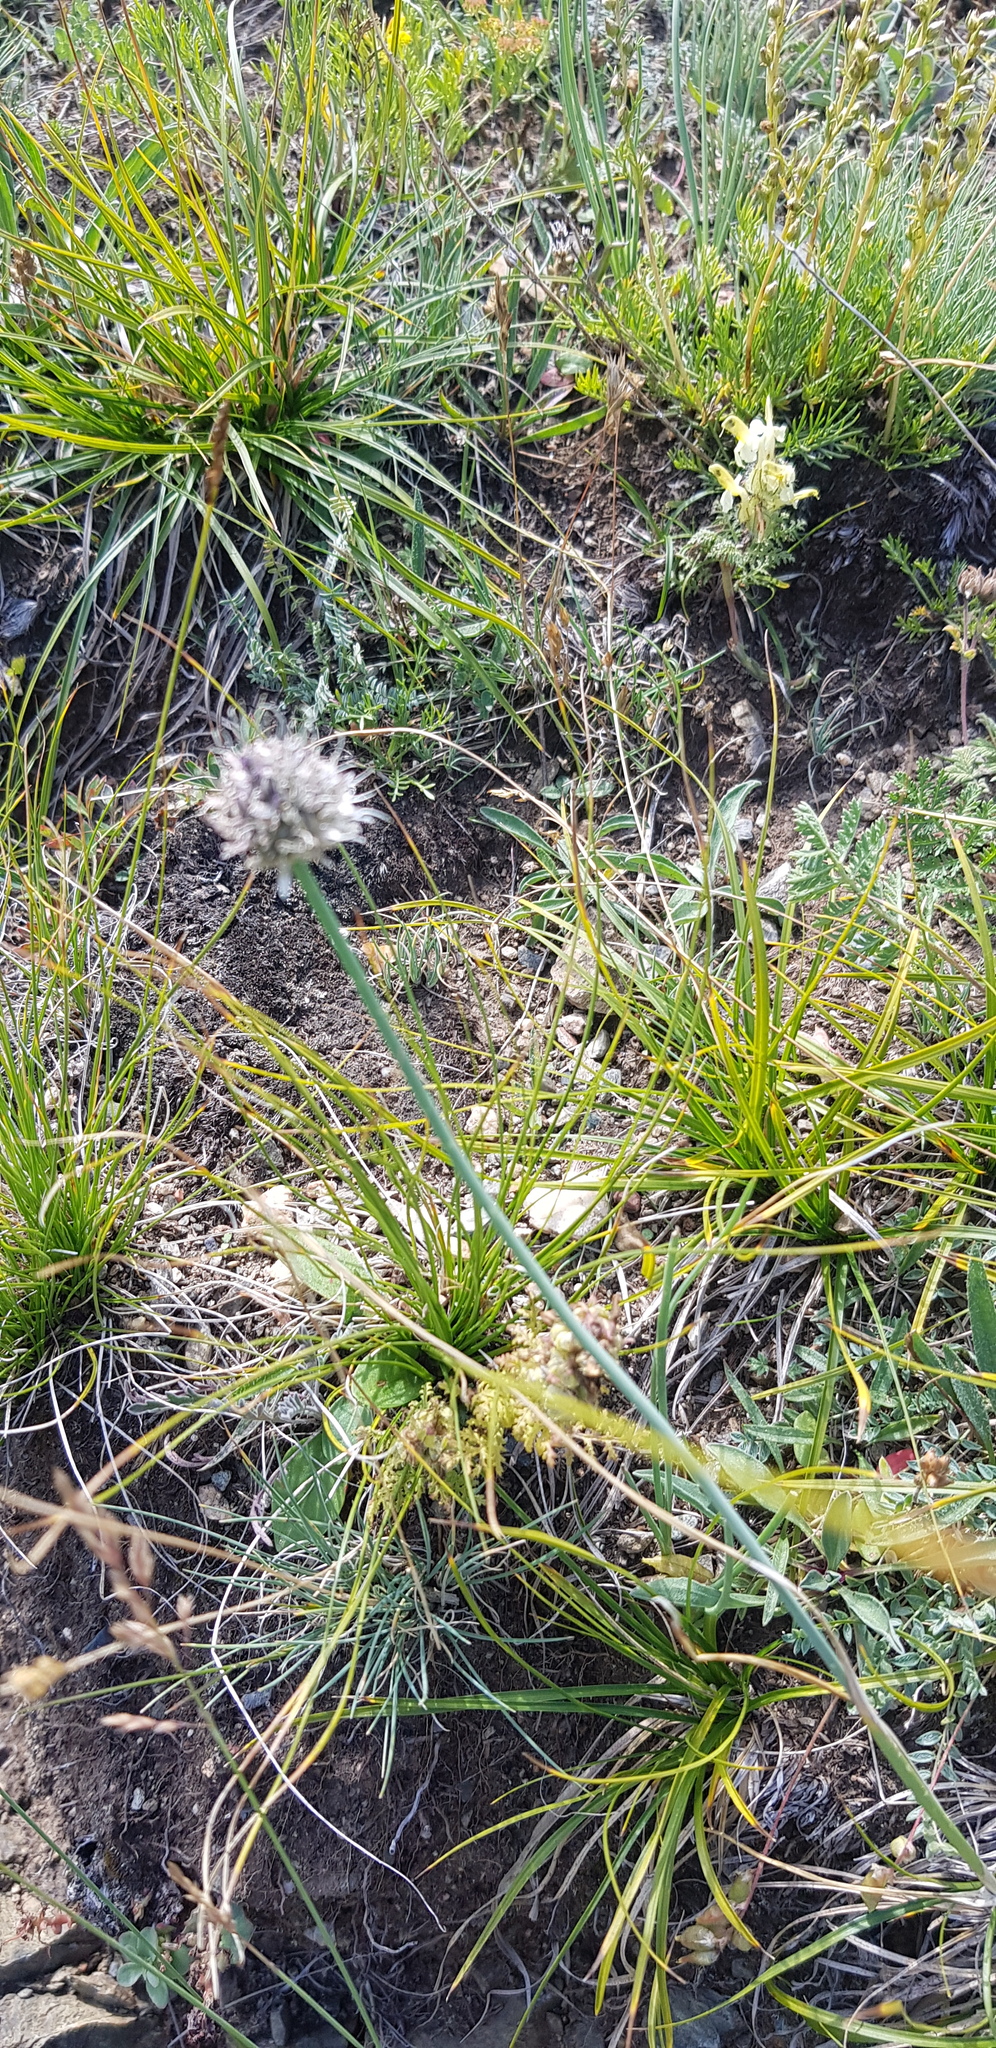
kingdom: Plantae
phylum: Tracheophyta
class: Liliopsida
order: Asparagales
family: Amaryllidaceae
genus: Allium
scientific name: Allium bidentatum
